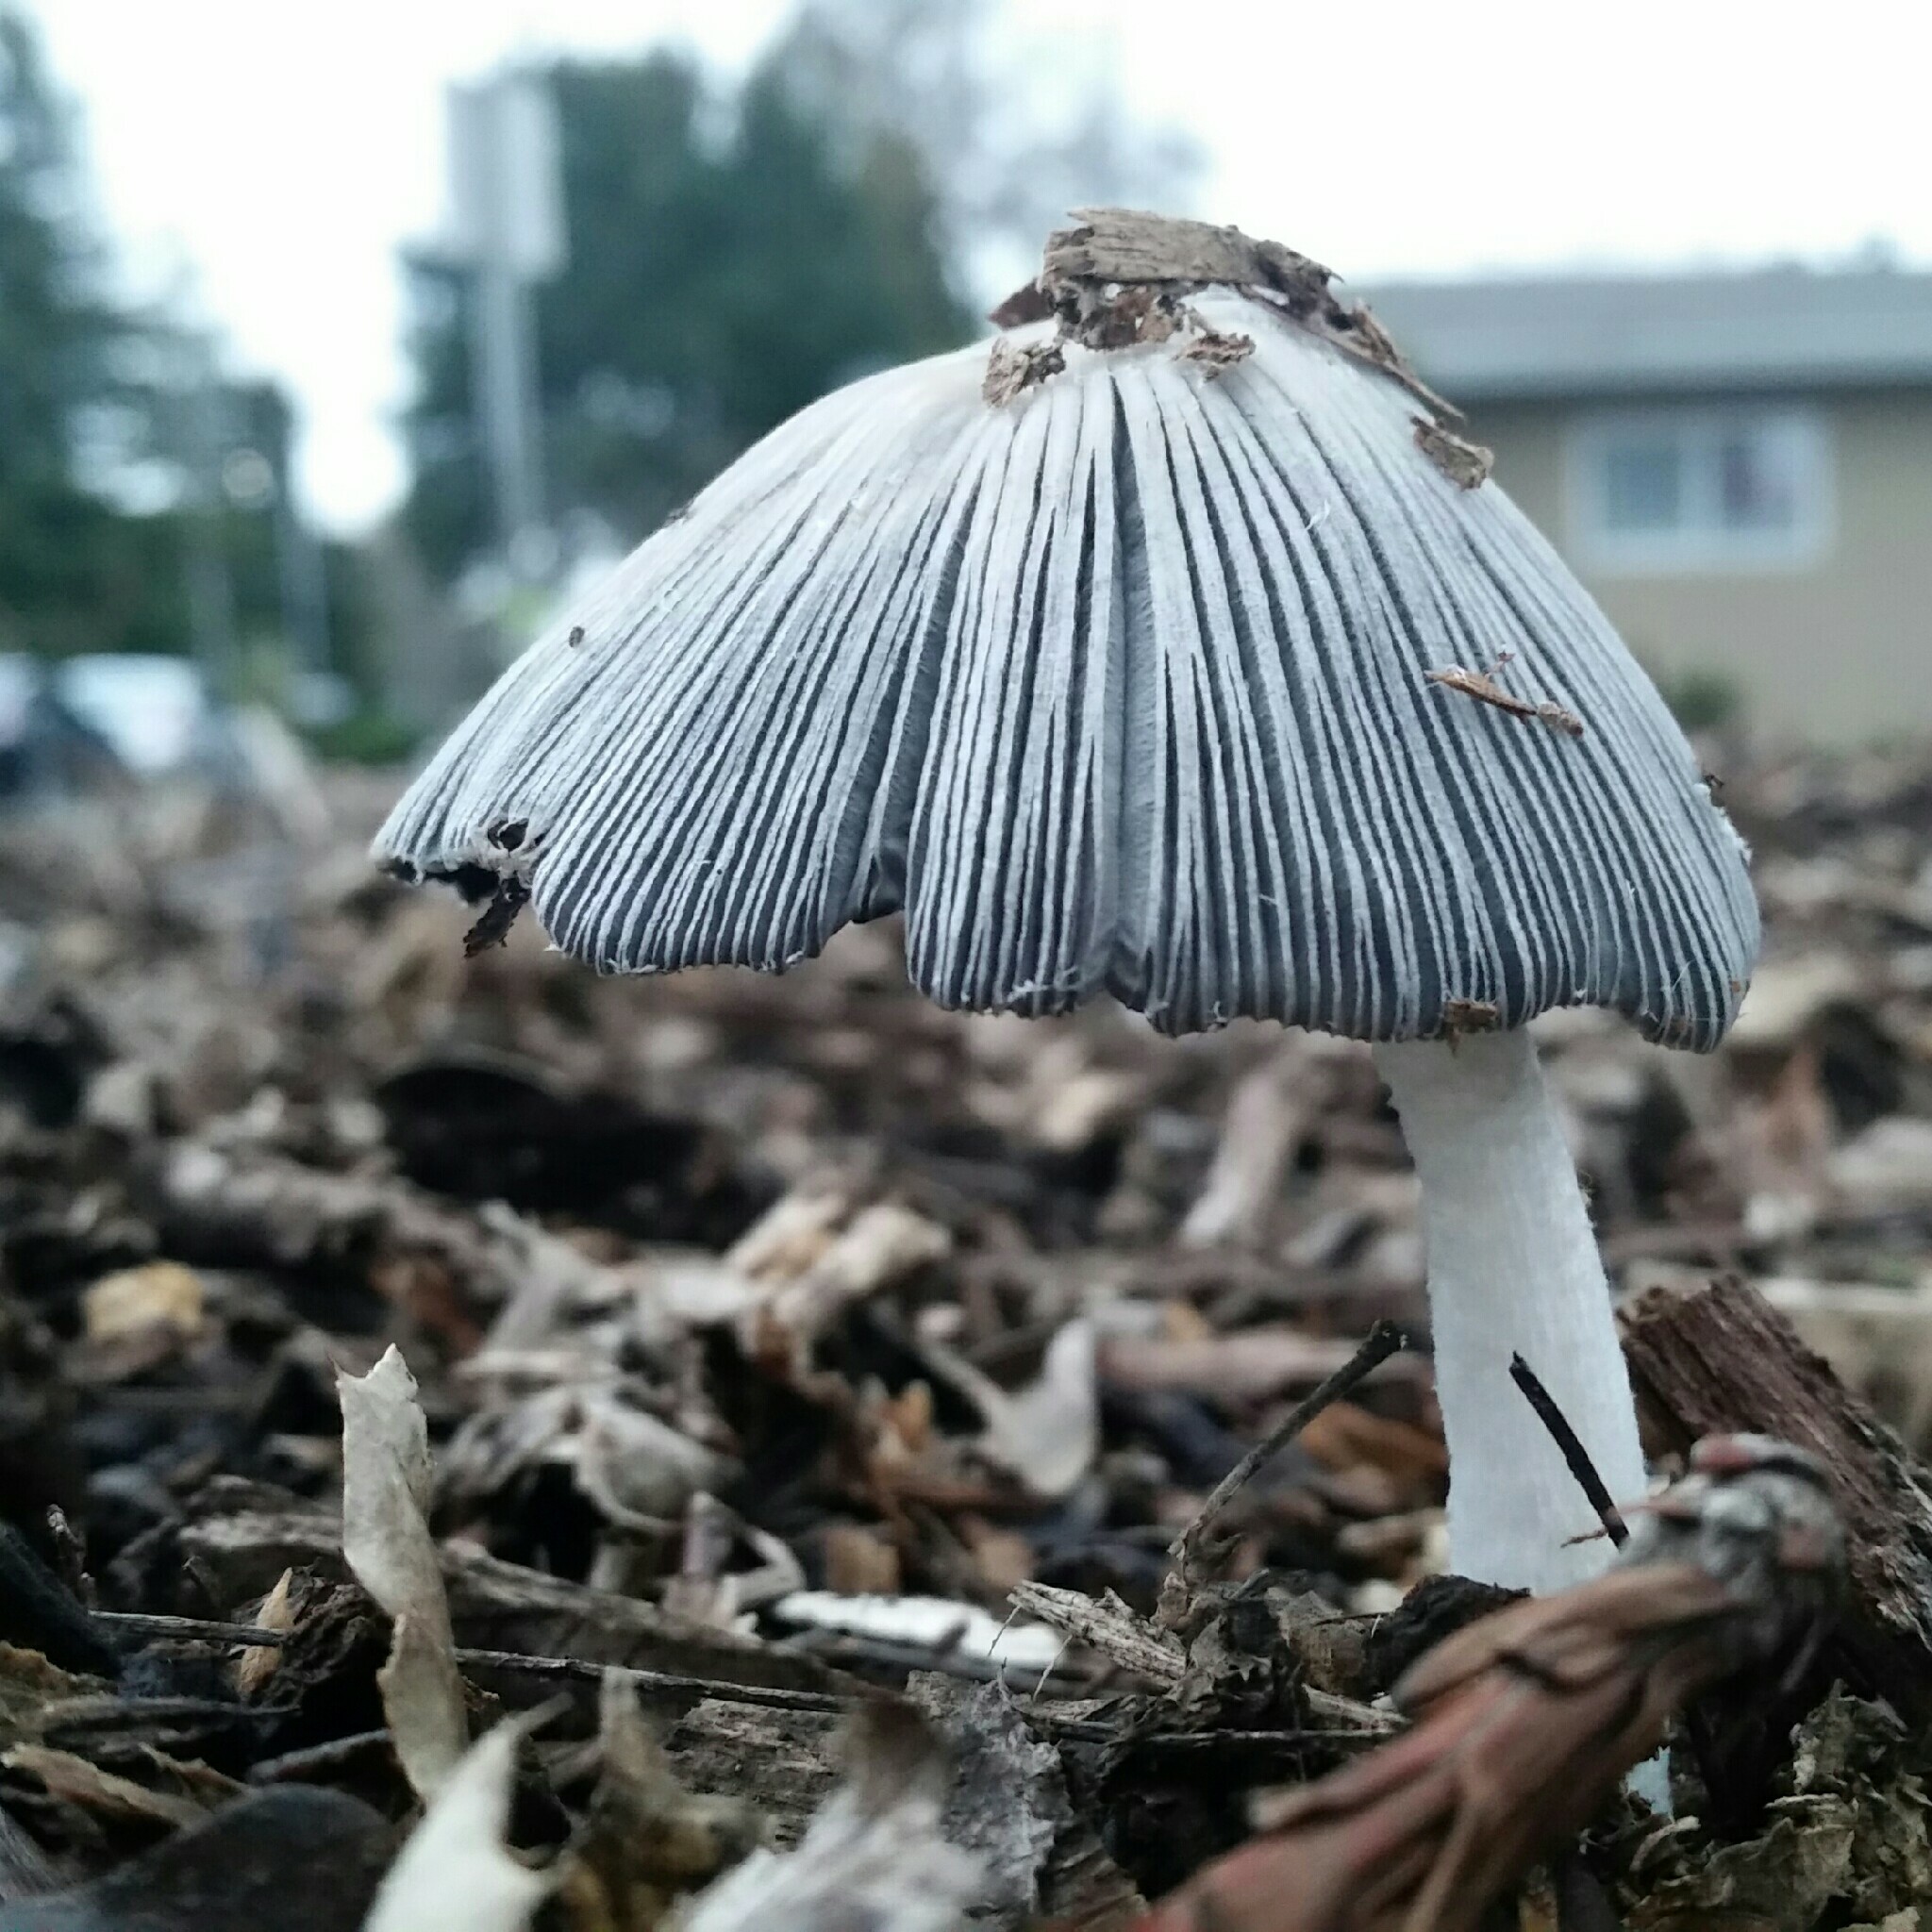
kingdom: Fungi
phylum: Basidiomycota
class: Agaricomycetes
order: Agaricales
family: Psathyrellaceae
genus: Coprinopsis
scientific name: Coprinopsis lagopus
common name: Hare'sfoot inkcap
